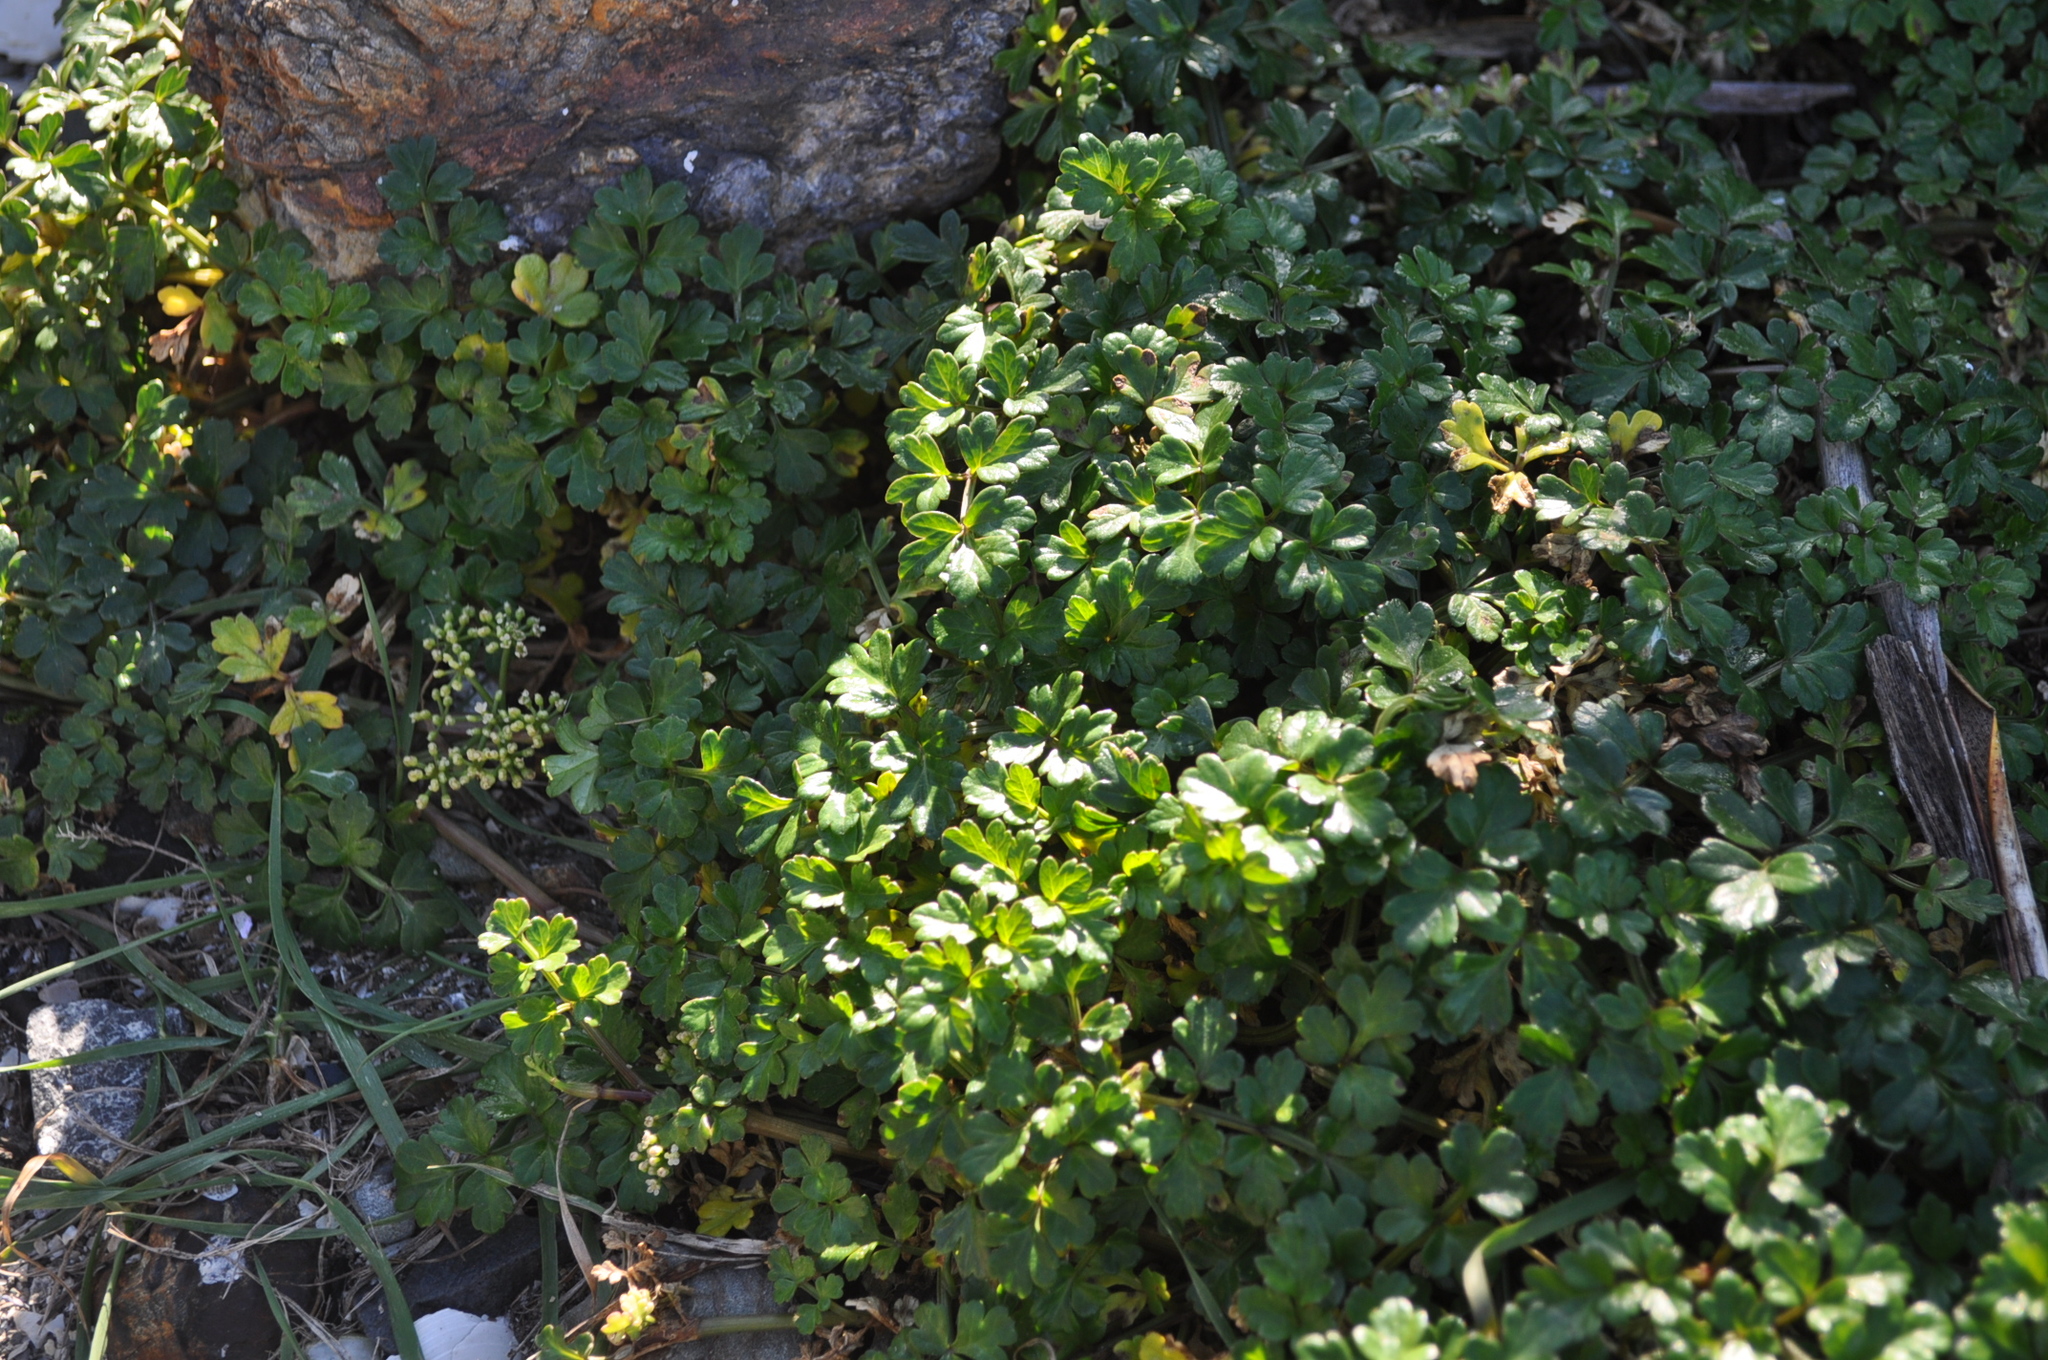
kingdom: Plantae
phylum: Tracheophyta
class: Magnoliopsida
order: Apiales
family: Apiaceae
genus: Apium
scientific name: Apium prostratum
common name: Prostrate marshwort
